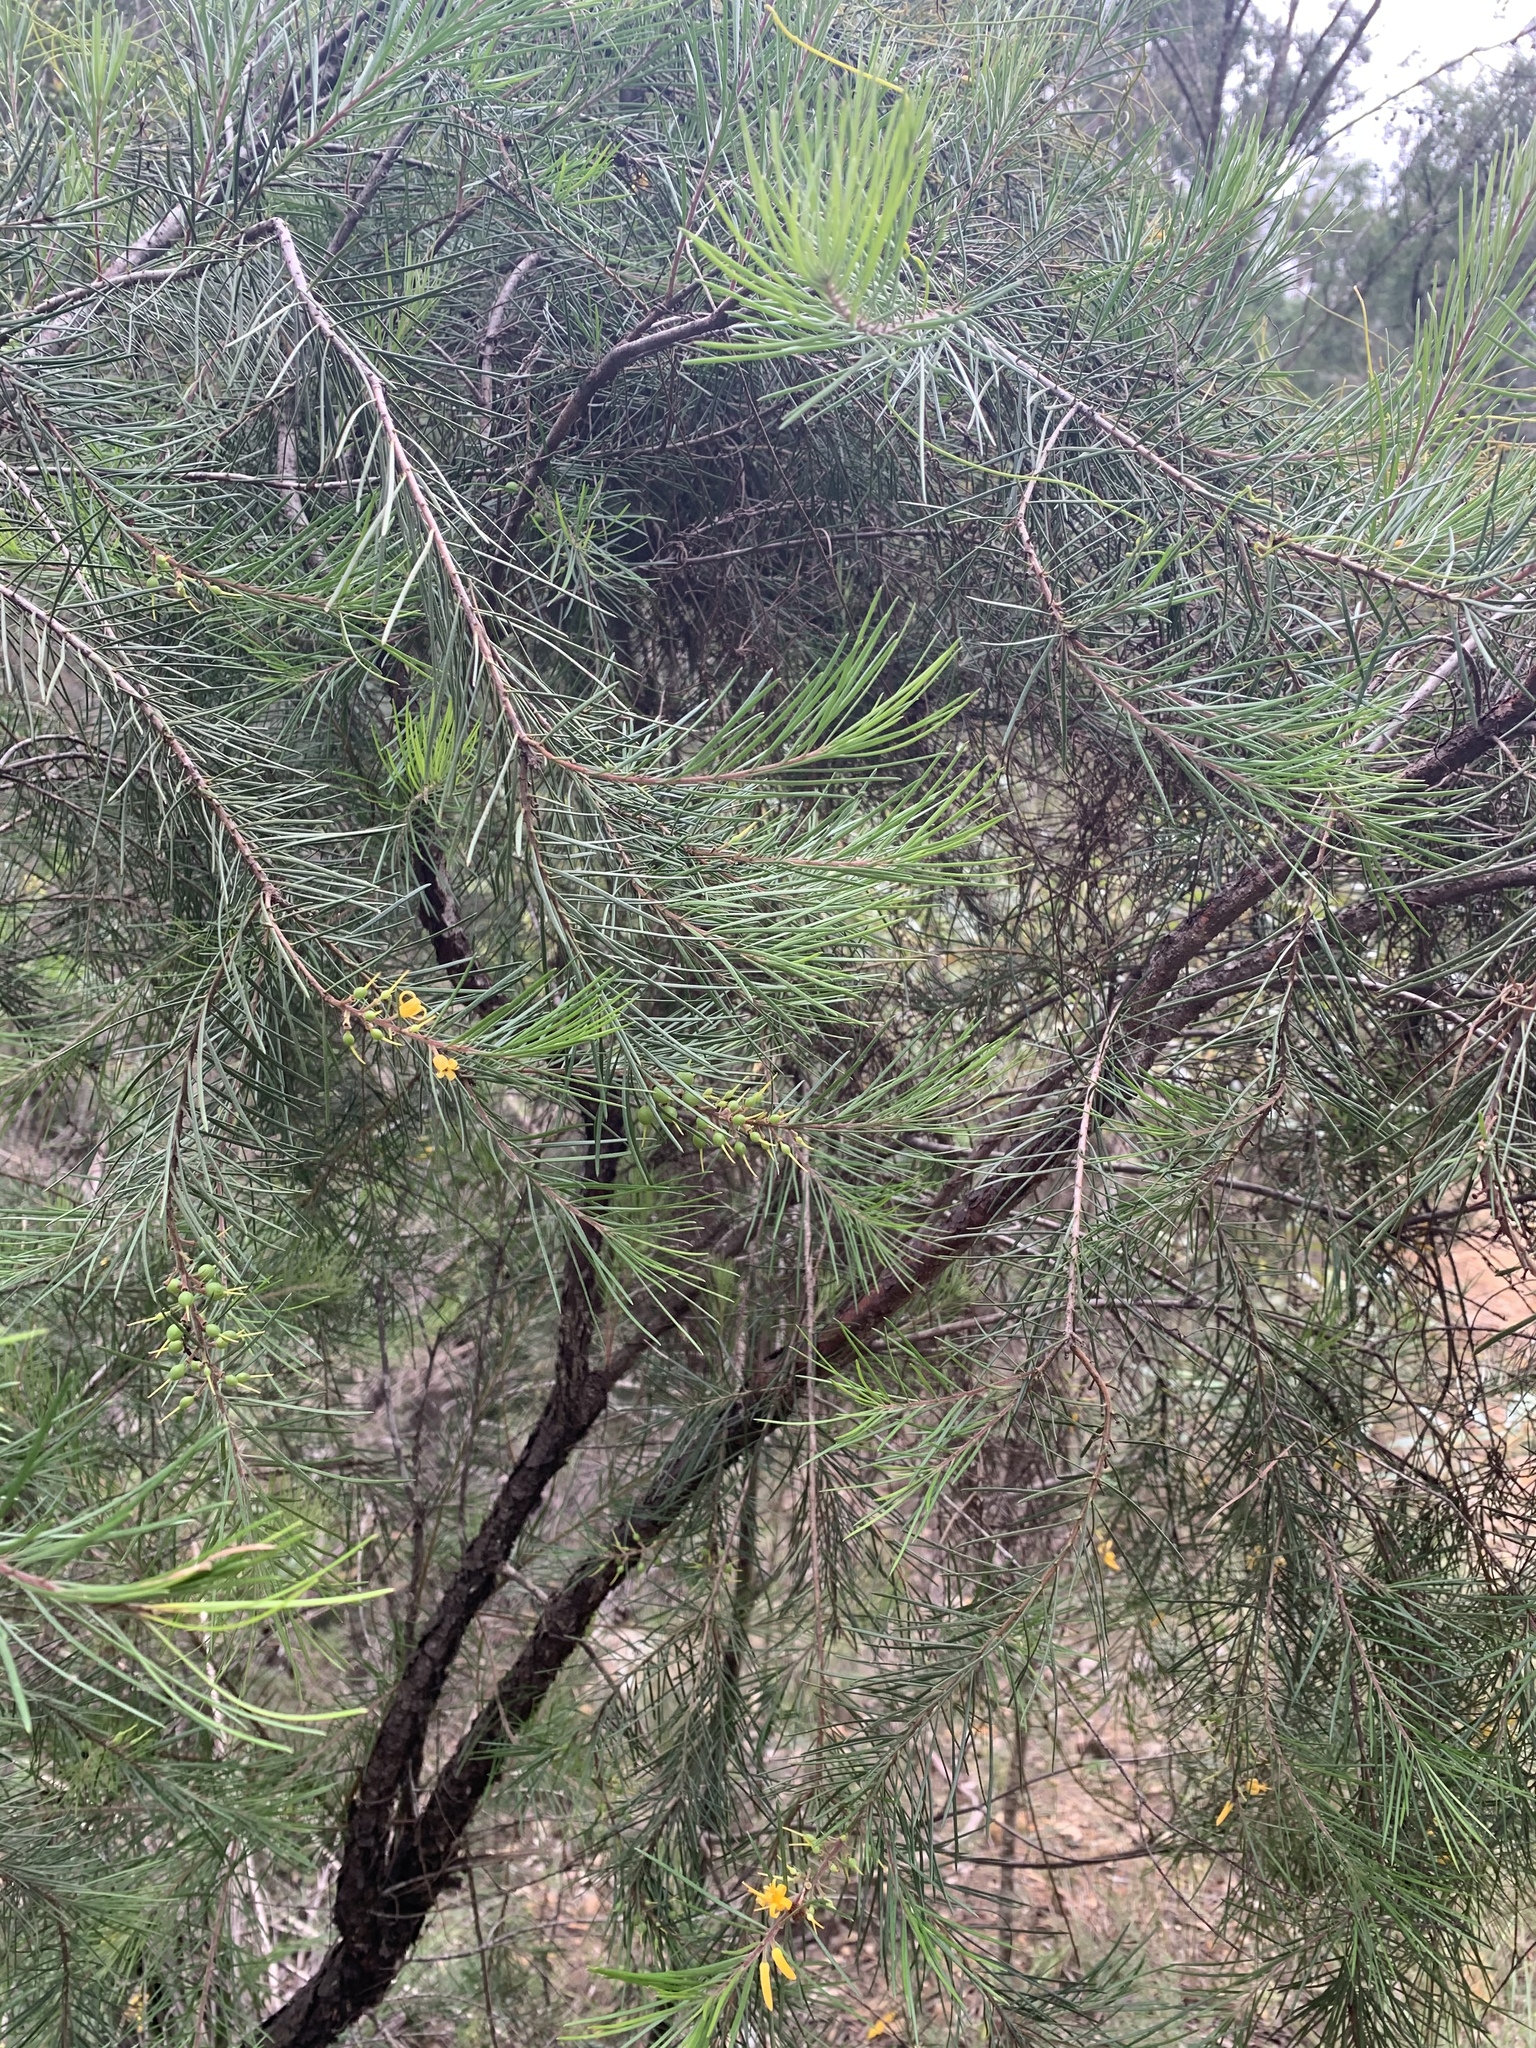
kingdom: Plantae
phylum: Tracheophyta
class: Magnoliopsida
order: Proteales
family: Proteaceae
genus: Persoonia
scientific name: Persoonia linearis
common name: Narrow-leaf geebung
